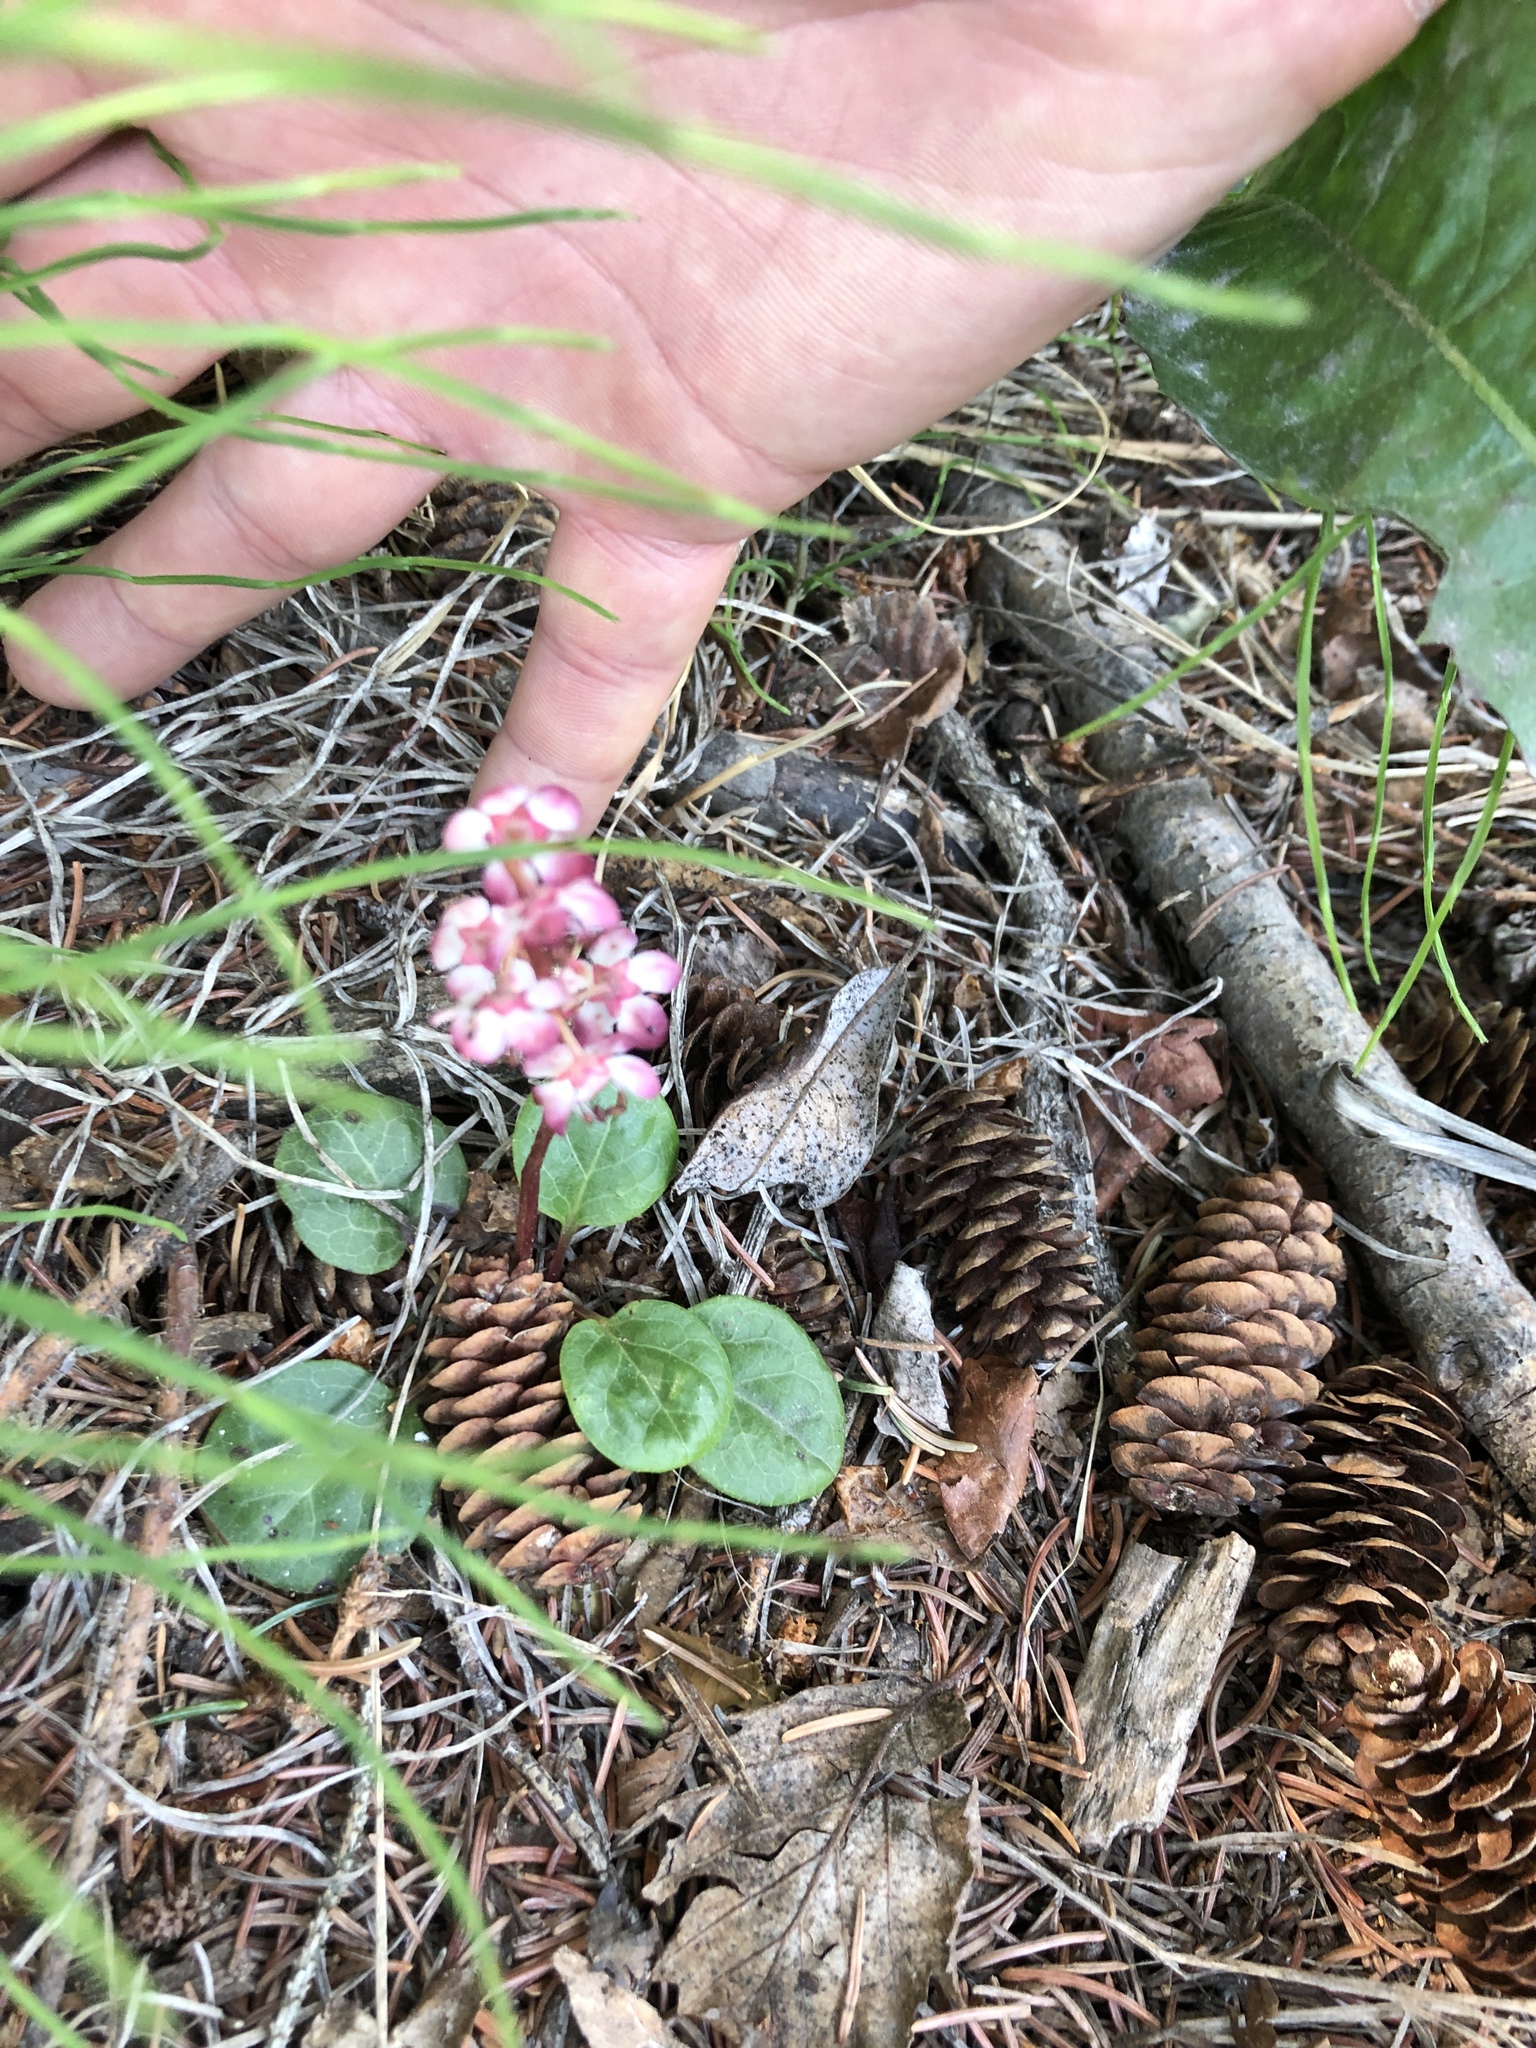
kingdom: Plantae
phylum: Tracheophyta
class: Magnoliopsida
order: Ericales
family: Ericaceae
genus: Pyrola
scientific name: Pyrola asarifolia
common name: Bog wintergreen
